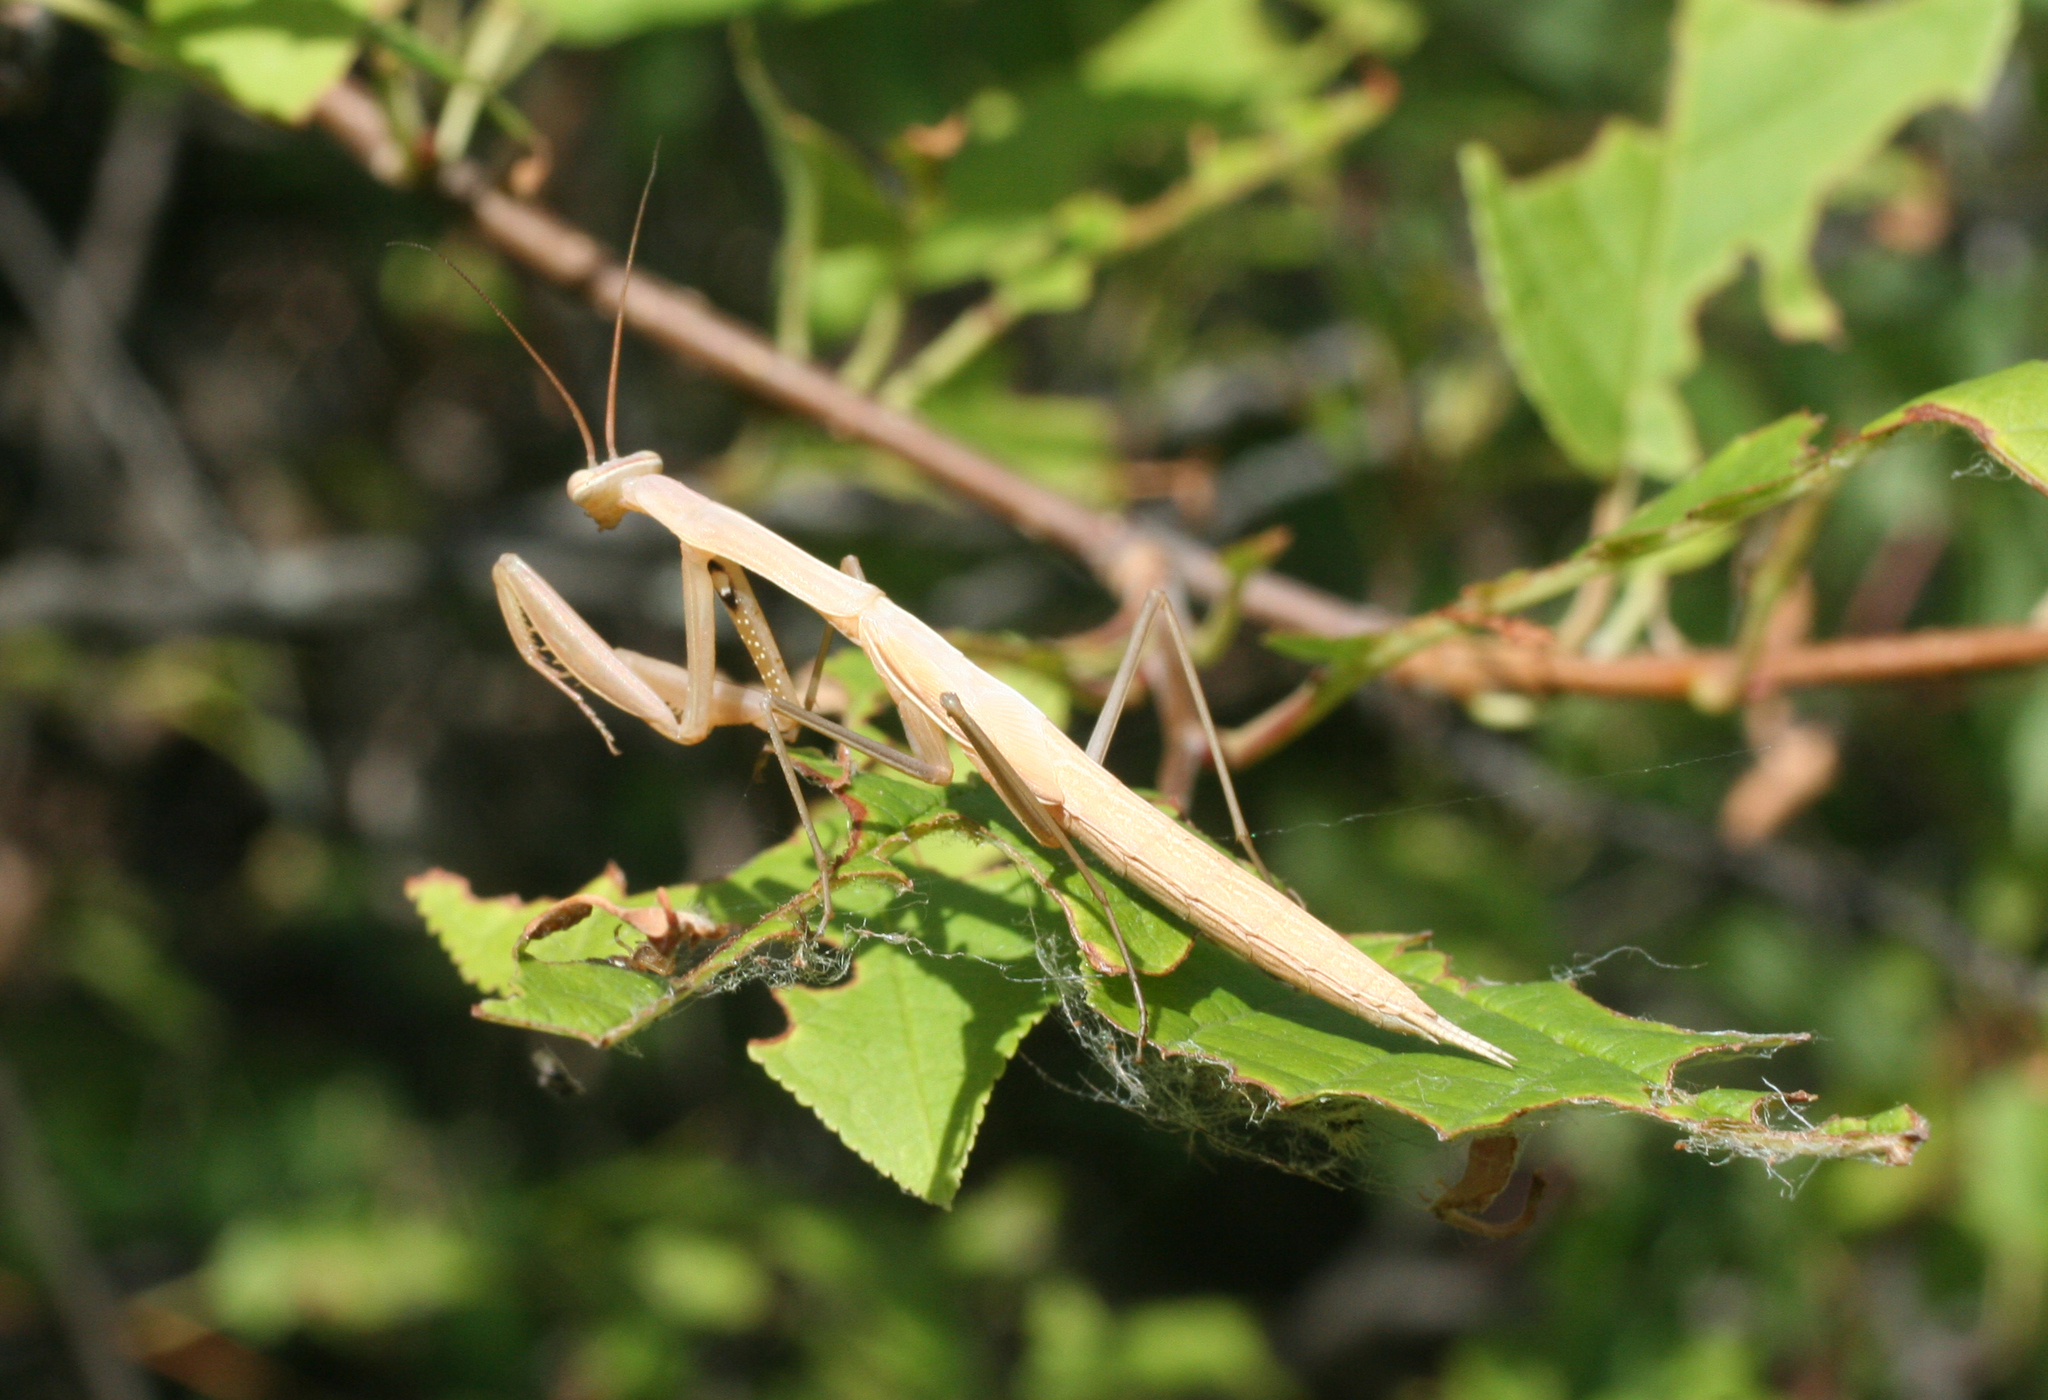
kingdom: Animalia
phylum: Arthropoda
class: Insecta
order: Mantodea
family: Mantidae
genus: Mantis
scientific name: Mantis religiosa
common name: Praying mantis
